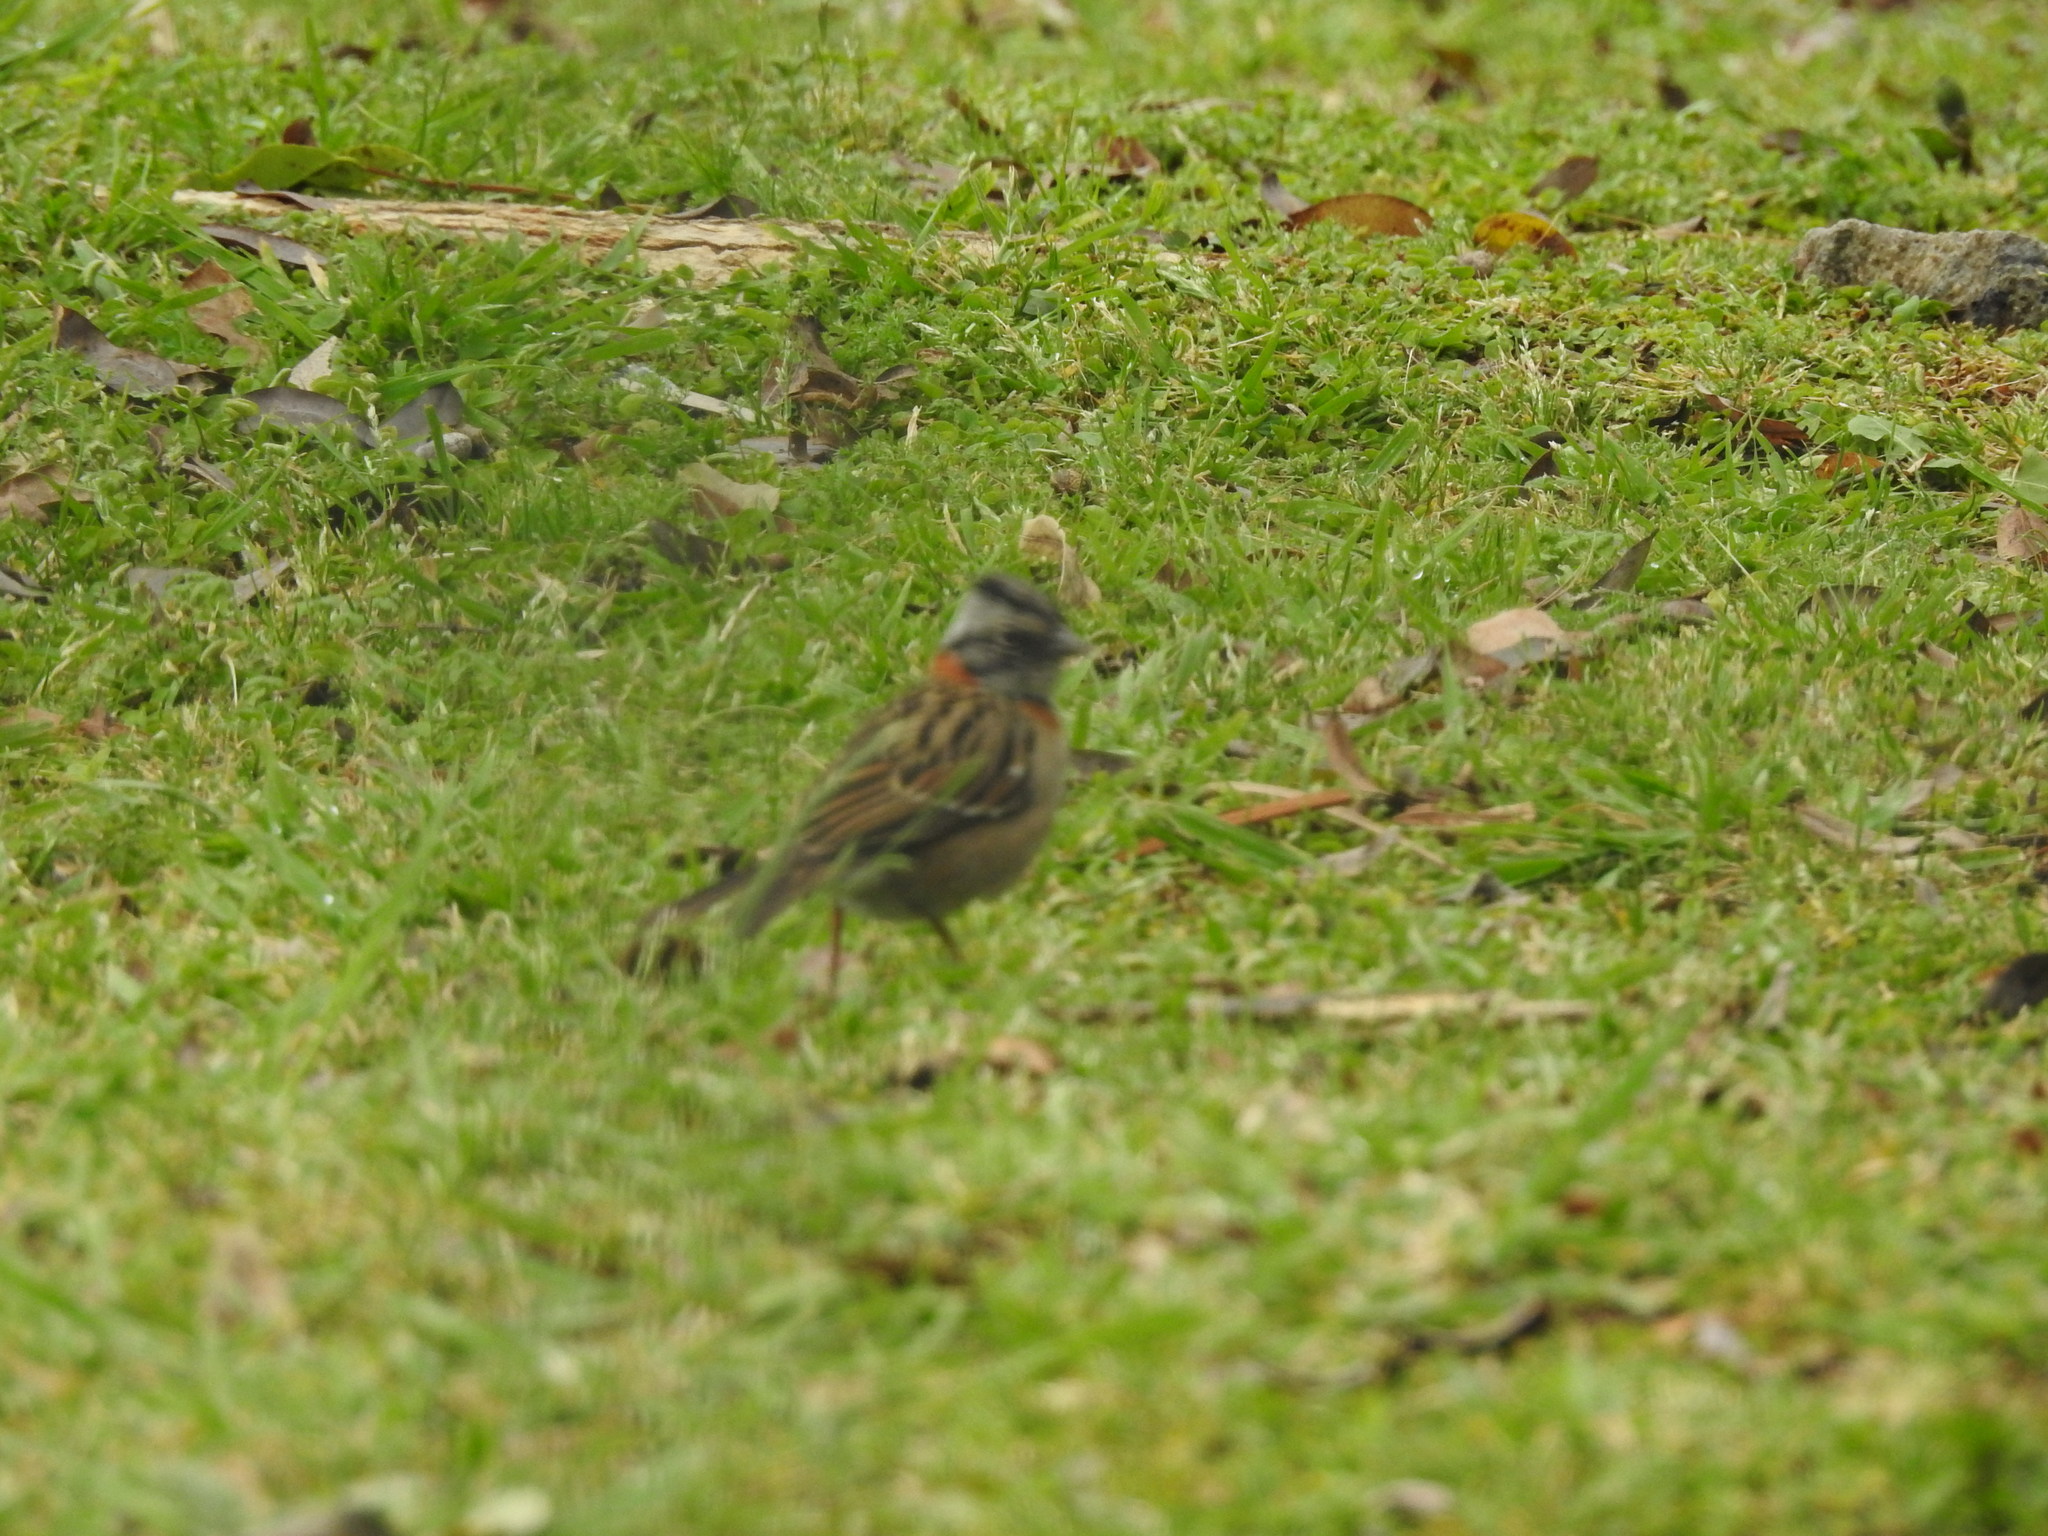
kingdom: Animalia
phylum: Chordata
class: Aves
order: Passeriformes
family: Passerellidae
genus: Zonotrichia
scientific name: Zonotrichia capensis
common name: Rufous-collared sparrow
